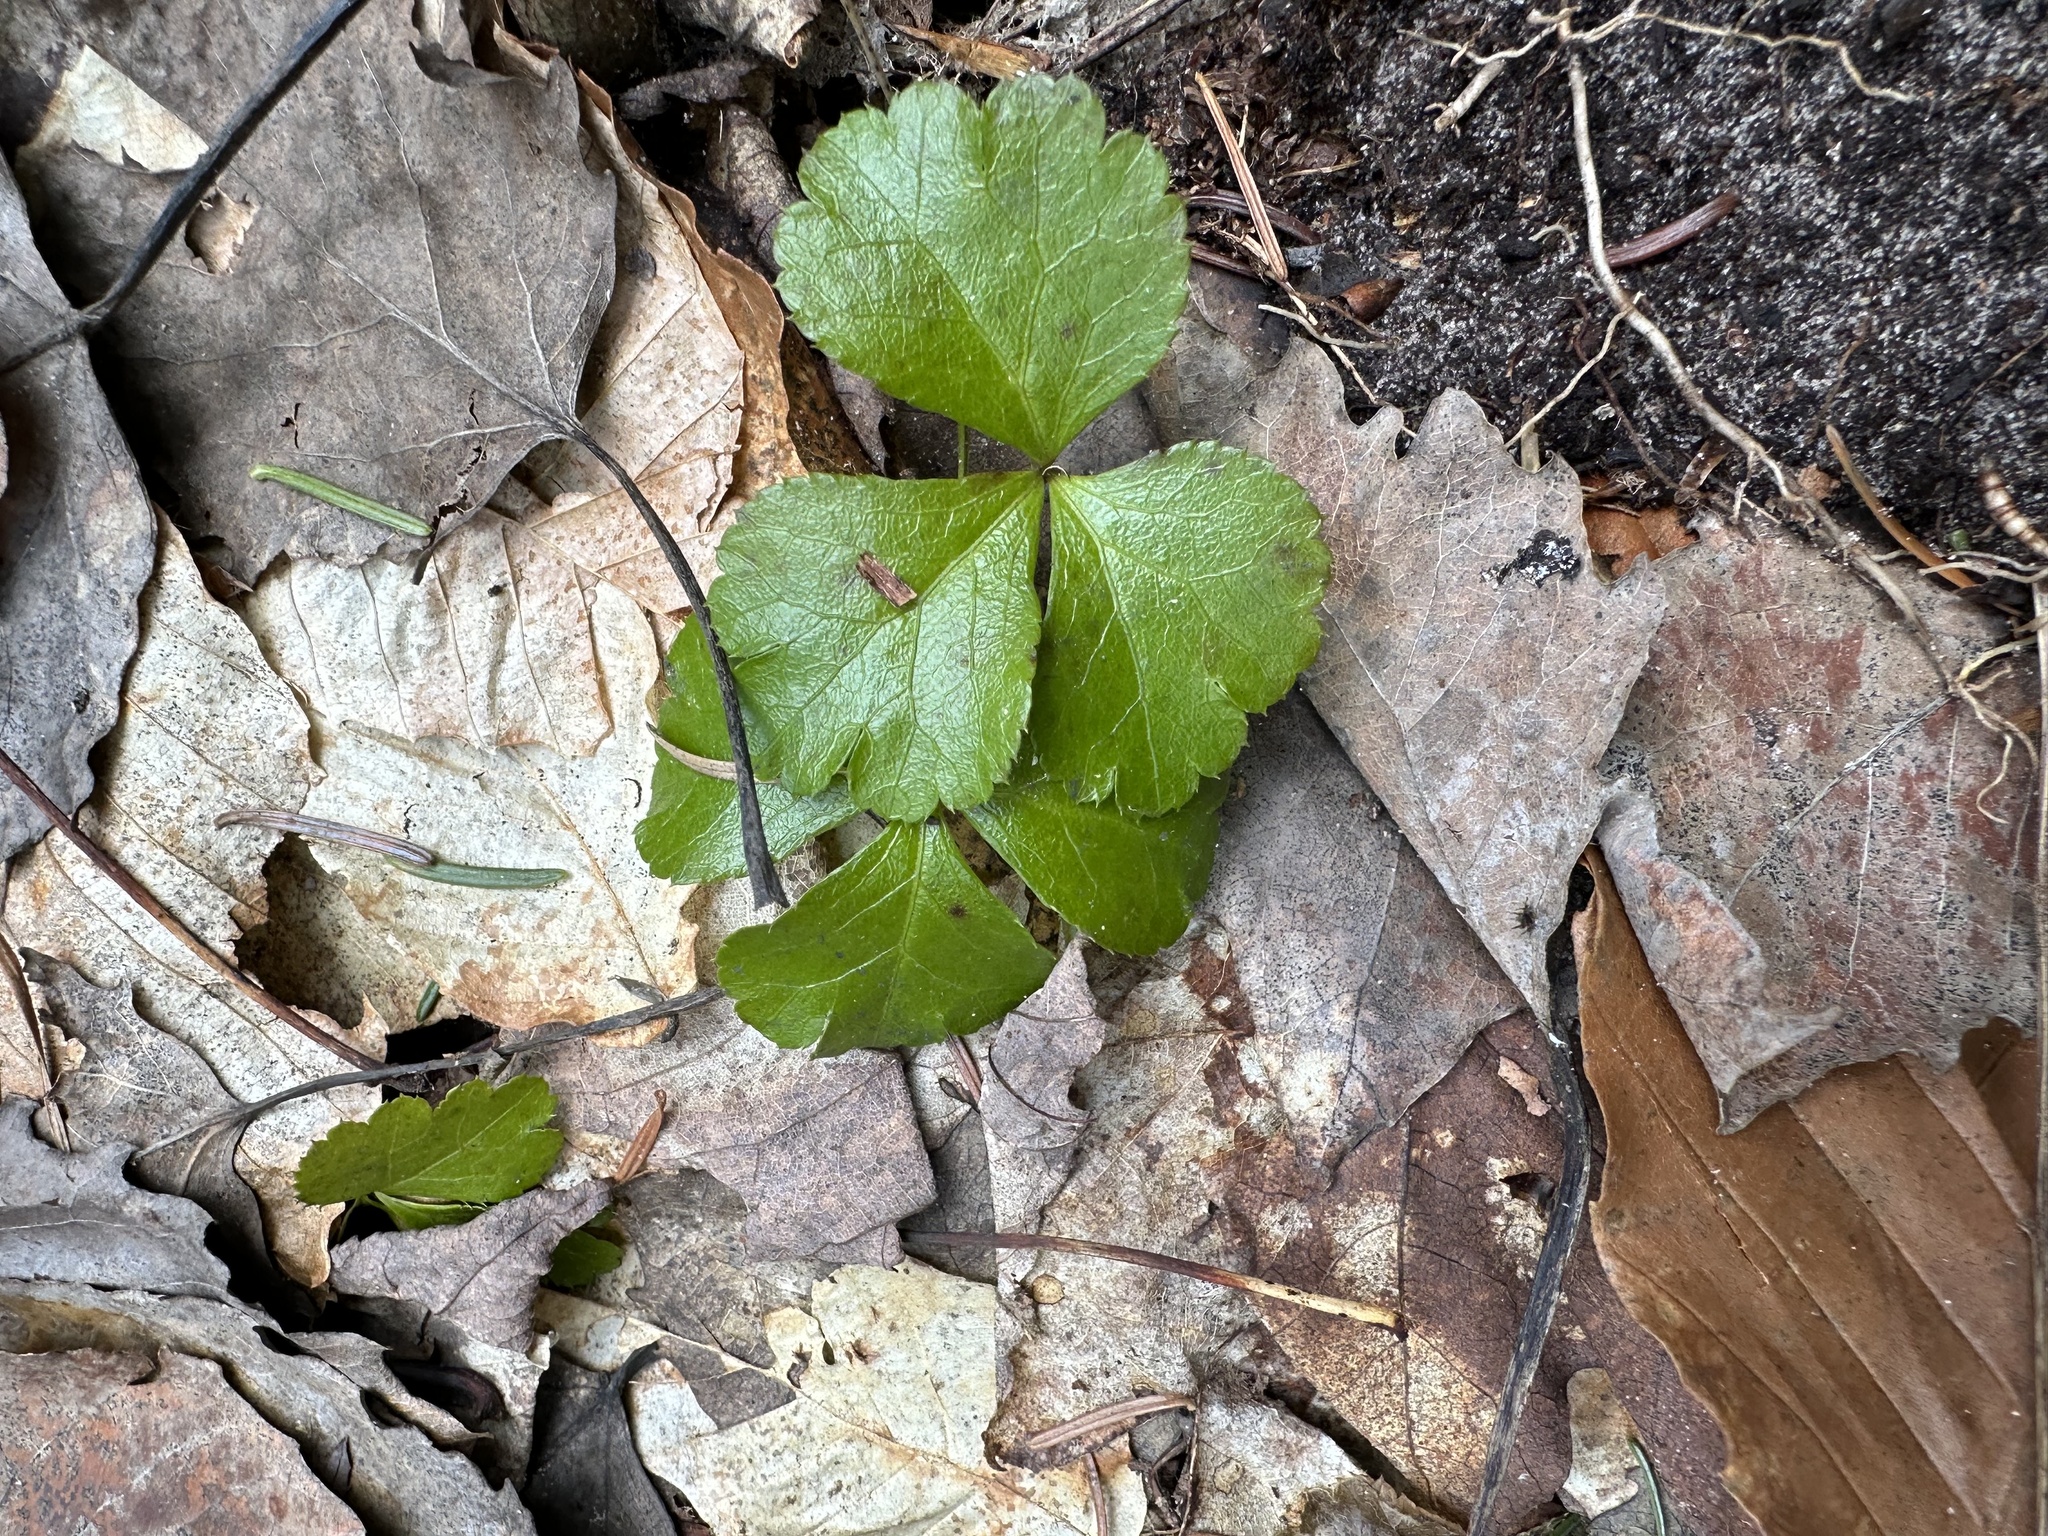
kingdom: Plantae
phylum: Tracheophyta
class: Magnoliopsida
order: Ranunculales
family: Ranunculaceae
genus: Coptis
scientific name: Coptis trifolia
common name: Canker-root
